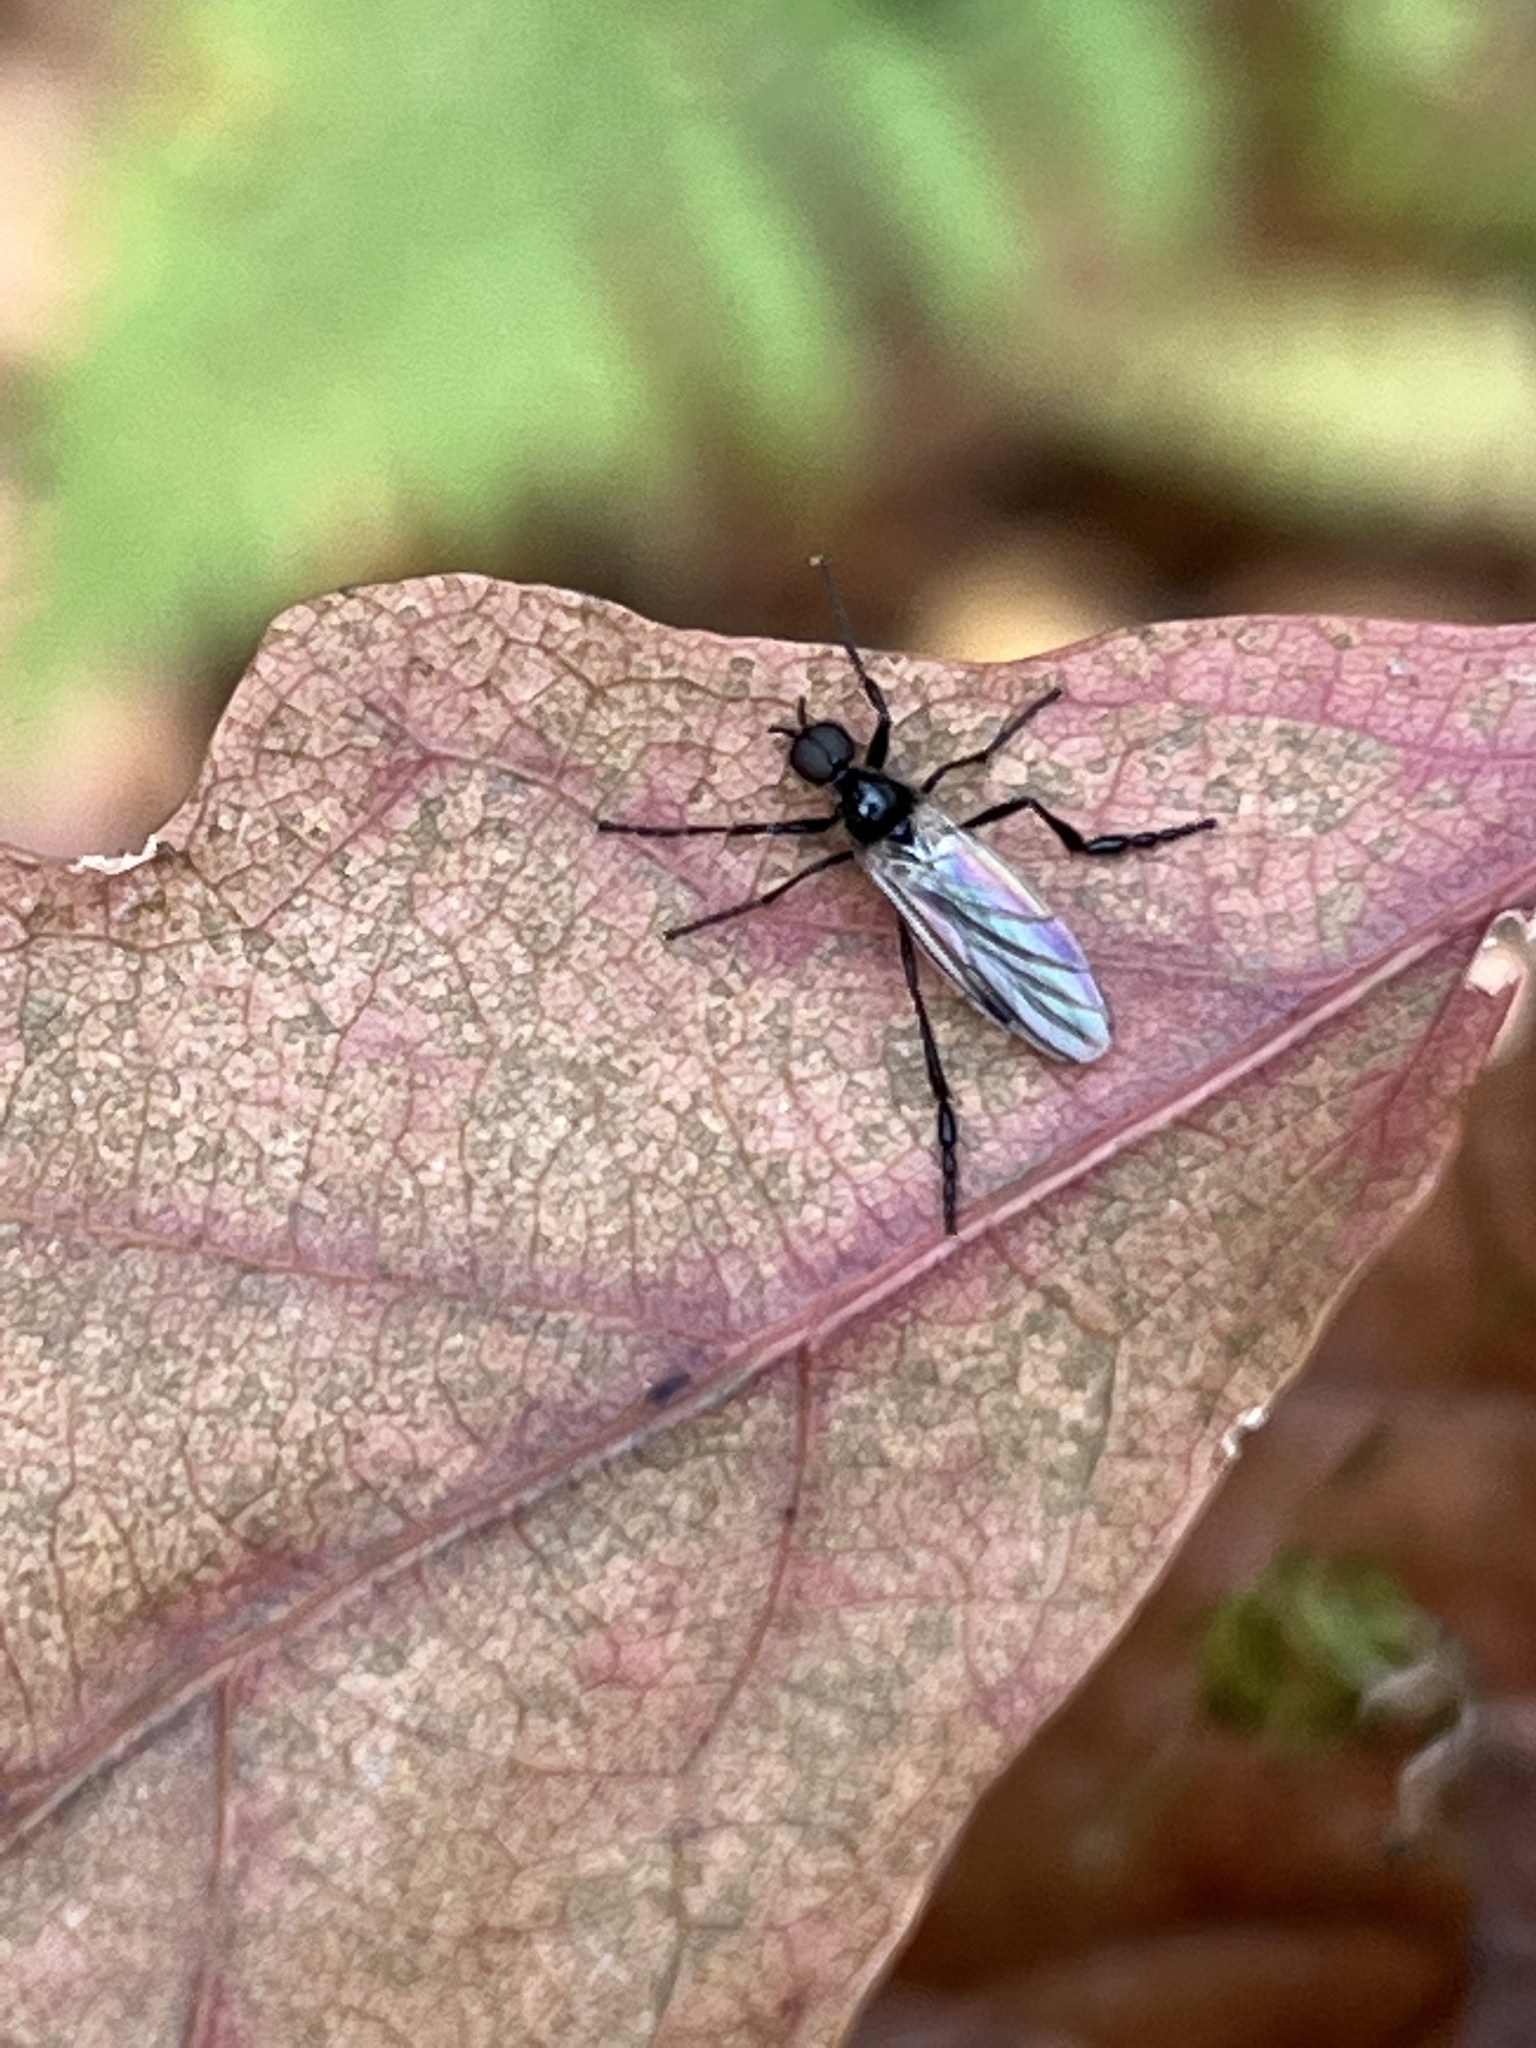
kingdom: Animalia
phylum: Arthropoda
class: Insecta
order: Diptera
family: Bibionidae
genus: Bibio
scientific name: Bibio
